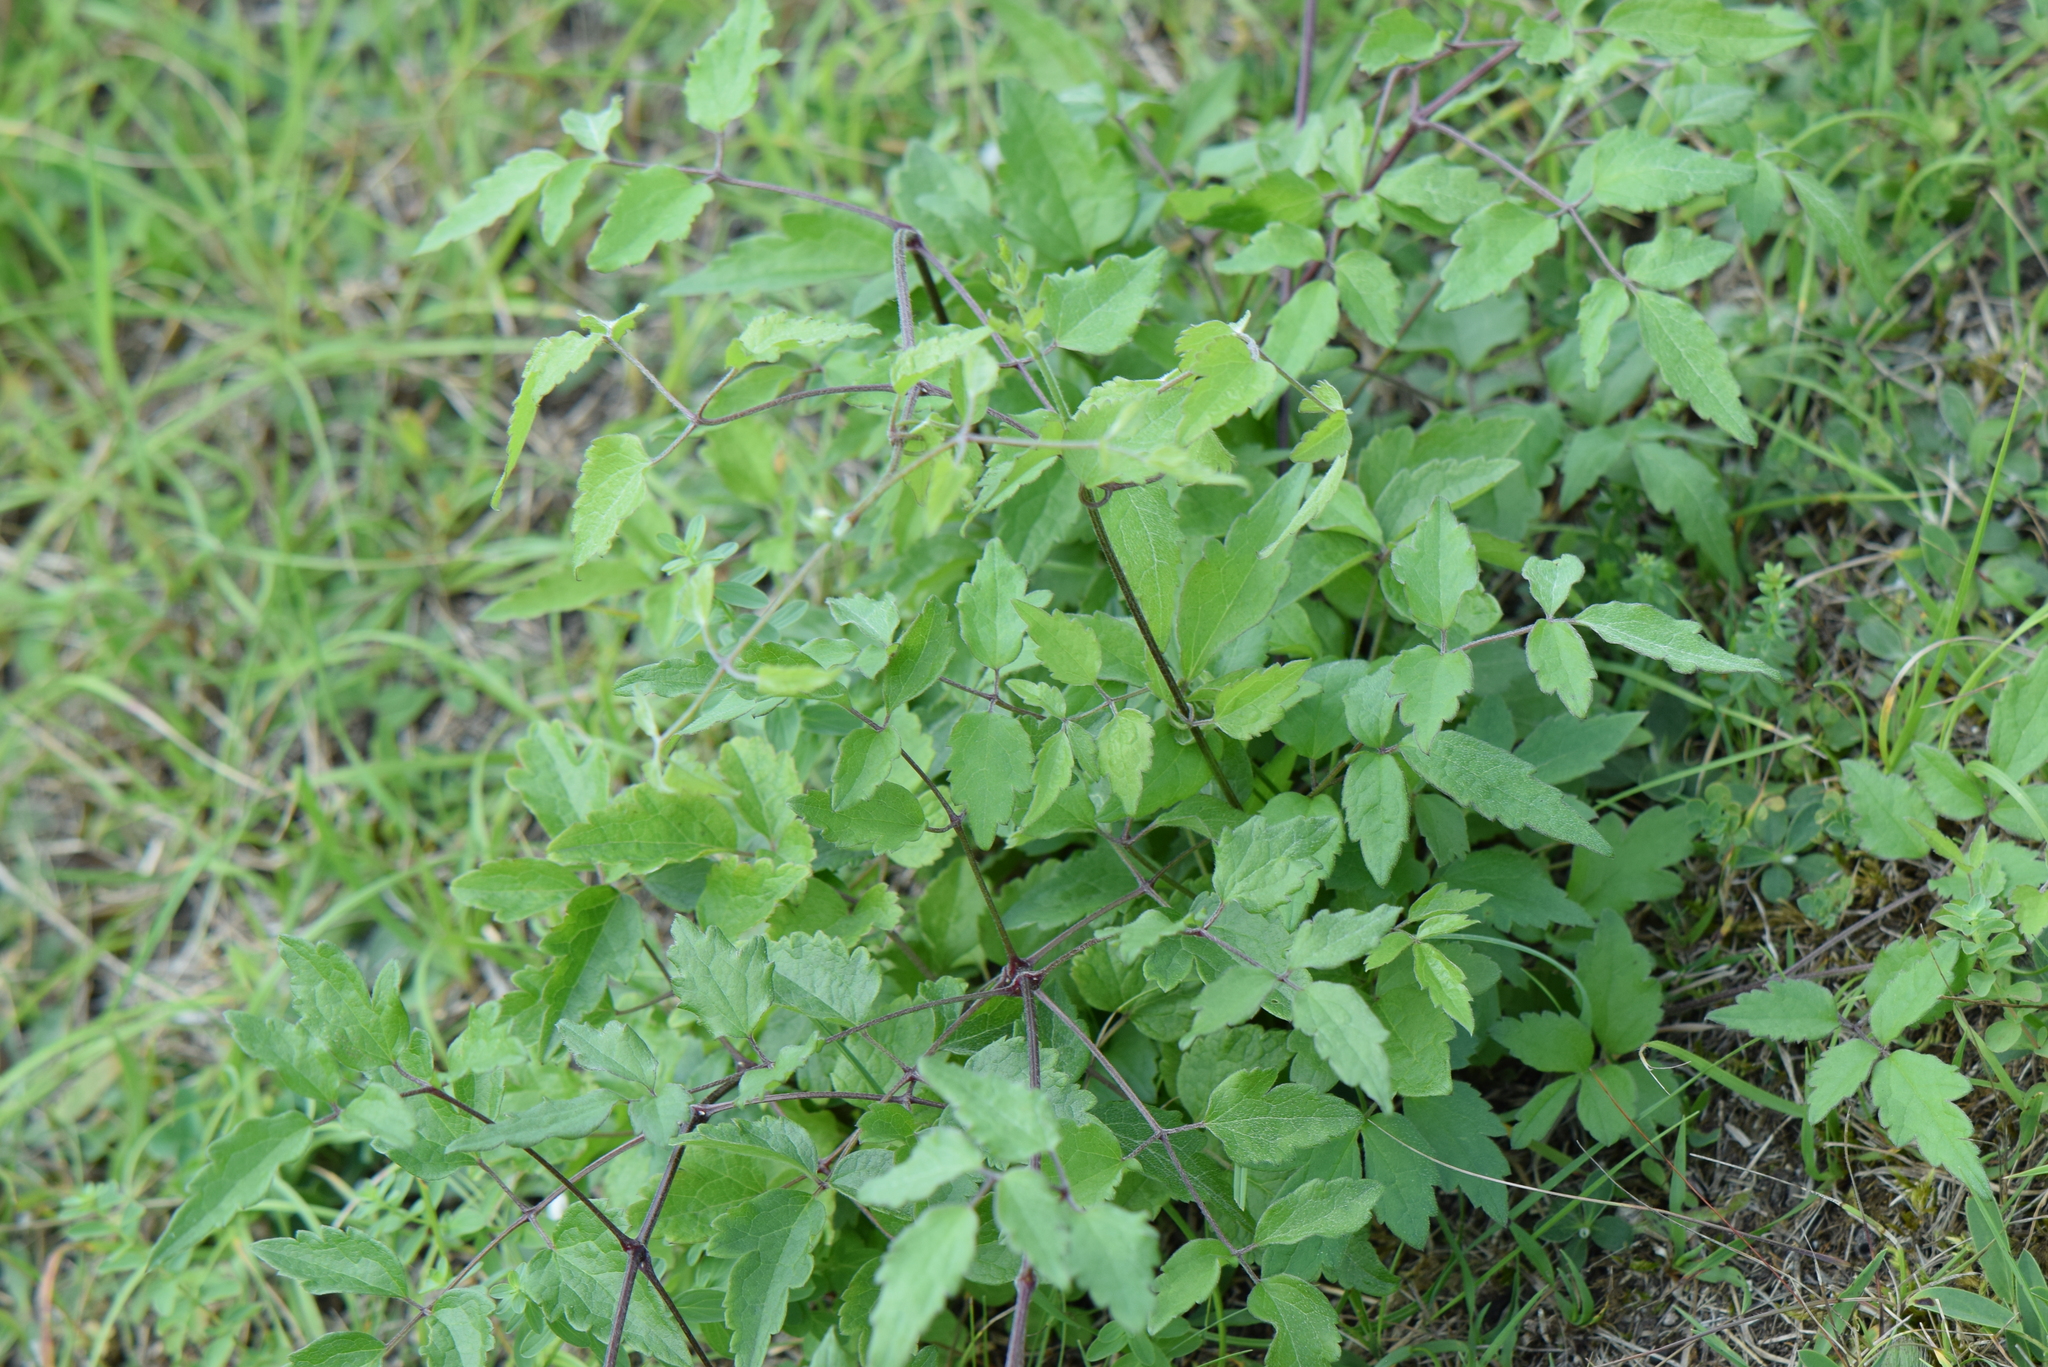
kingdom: Plantae
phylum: Tracheophyta
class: Magnoliopsida
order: Ranunculales
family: Ranunculaceae
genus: Clematis
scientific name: Clematis vitalba
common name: Evergreen clematis
